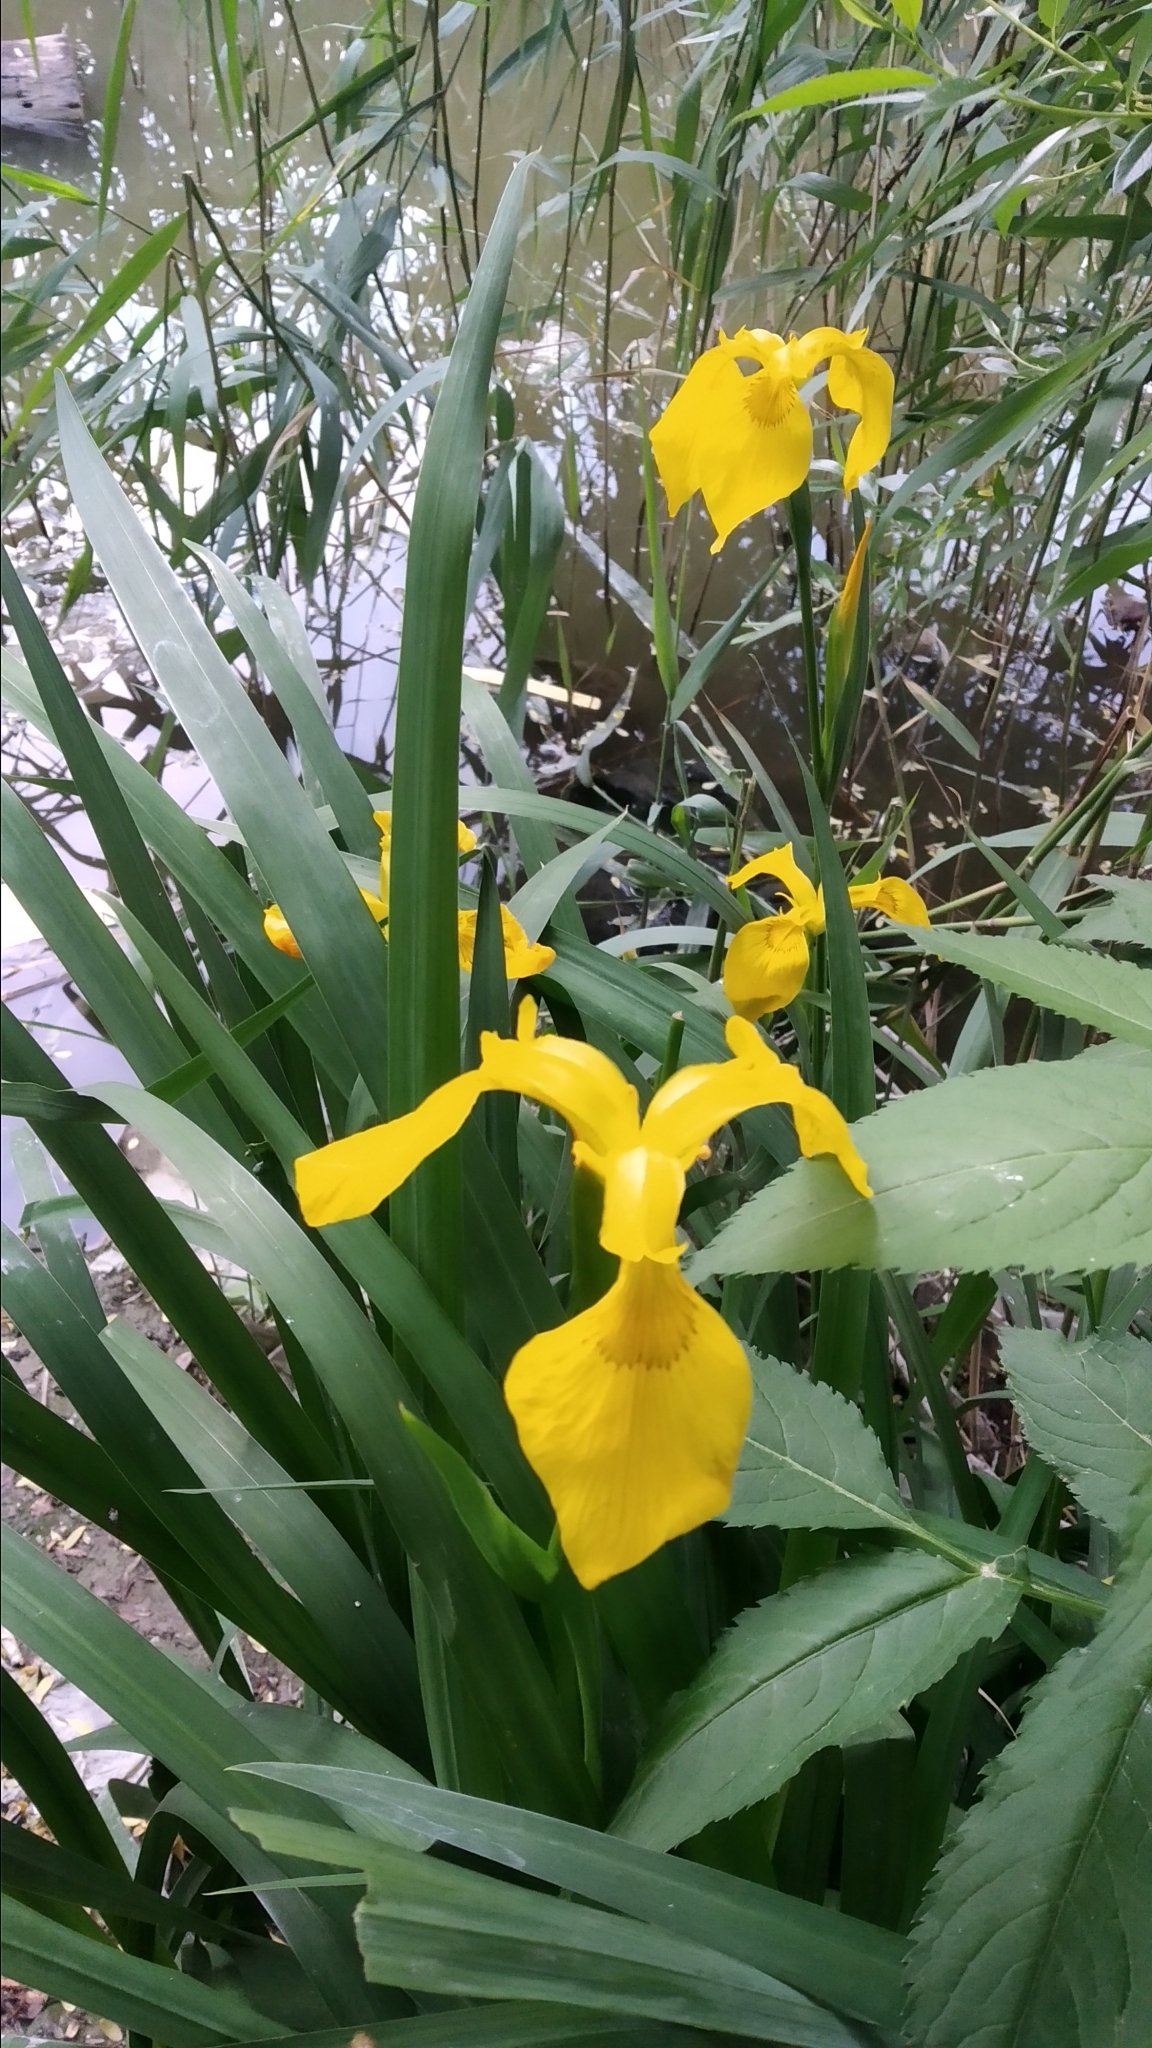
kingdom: Plantae
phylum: Tracheophyta
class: Liliopsida
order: Asparagales
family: Iridaceae
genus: Iris
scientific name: Iris pseudacorus
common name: Yellow flag
